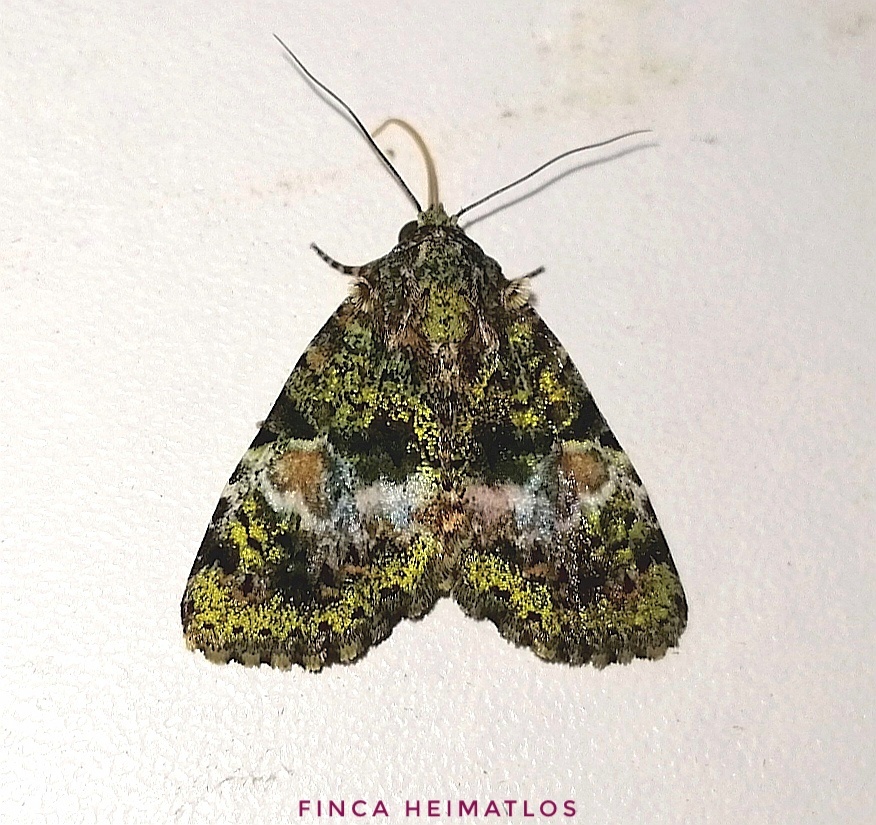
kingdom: Animalia
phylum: Arthropoda
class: Insecta
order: Lepidoptera
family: Erebidae
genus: Eudyops
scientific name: Eudyops fuscoviridis
